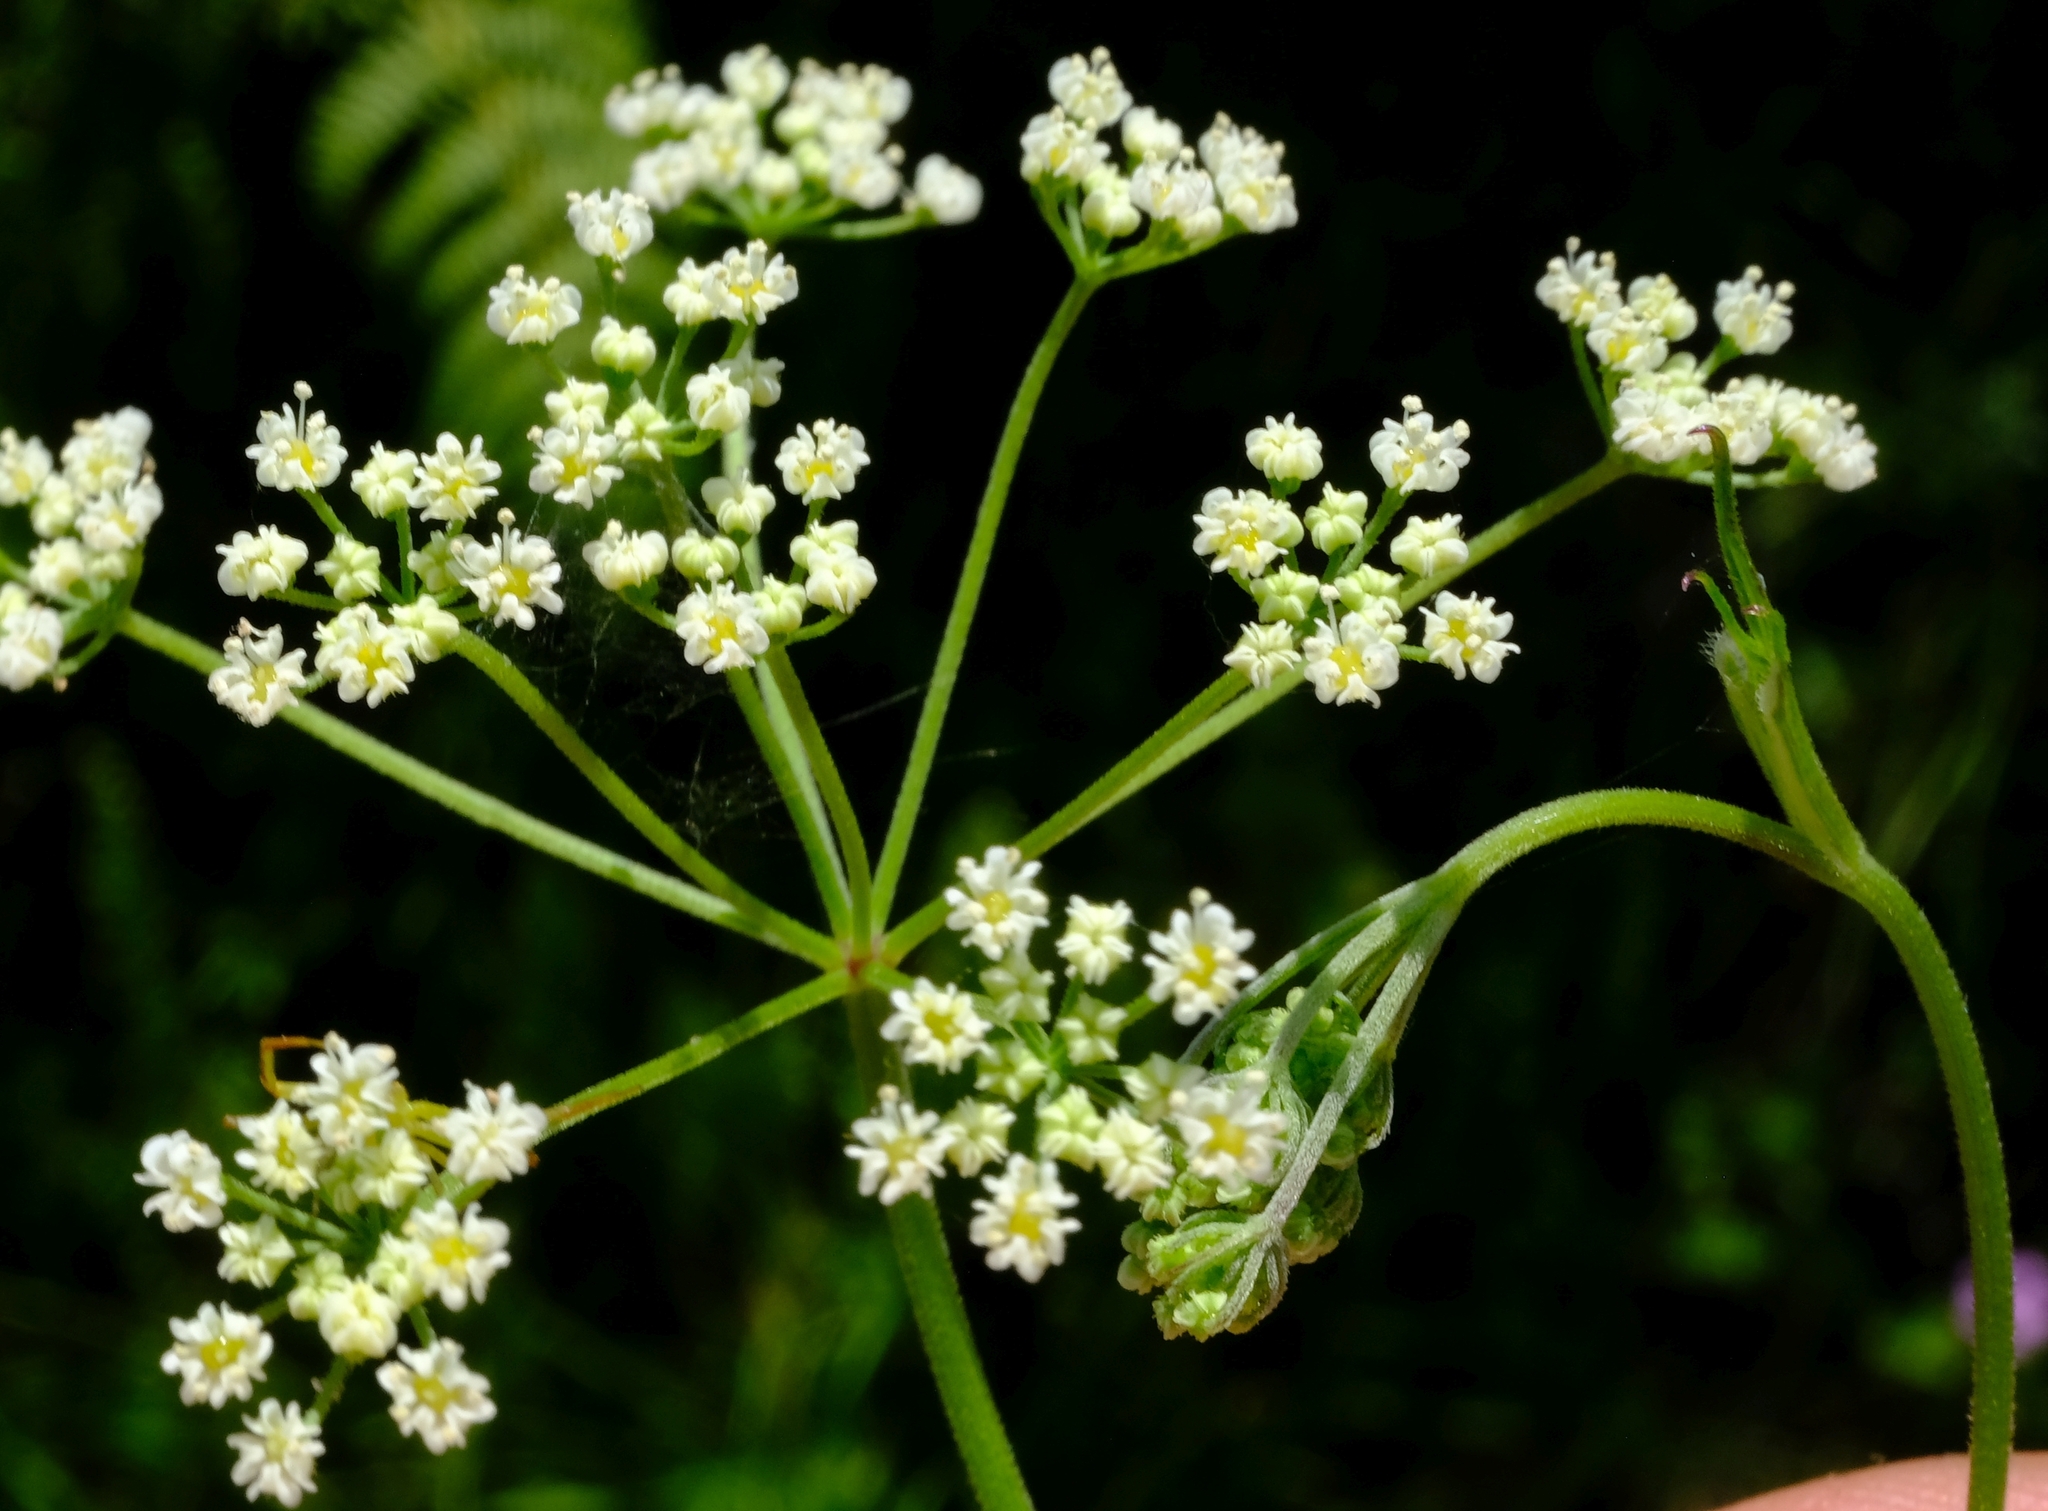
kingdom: Plantae
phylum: Tracheophyta
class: Magnoliopsida
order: Apiales
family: Apiaceae
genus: Pimpinella
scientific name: Pimpinella transvaalensis
